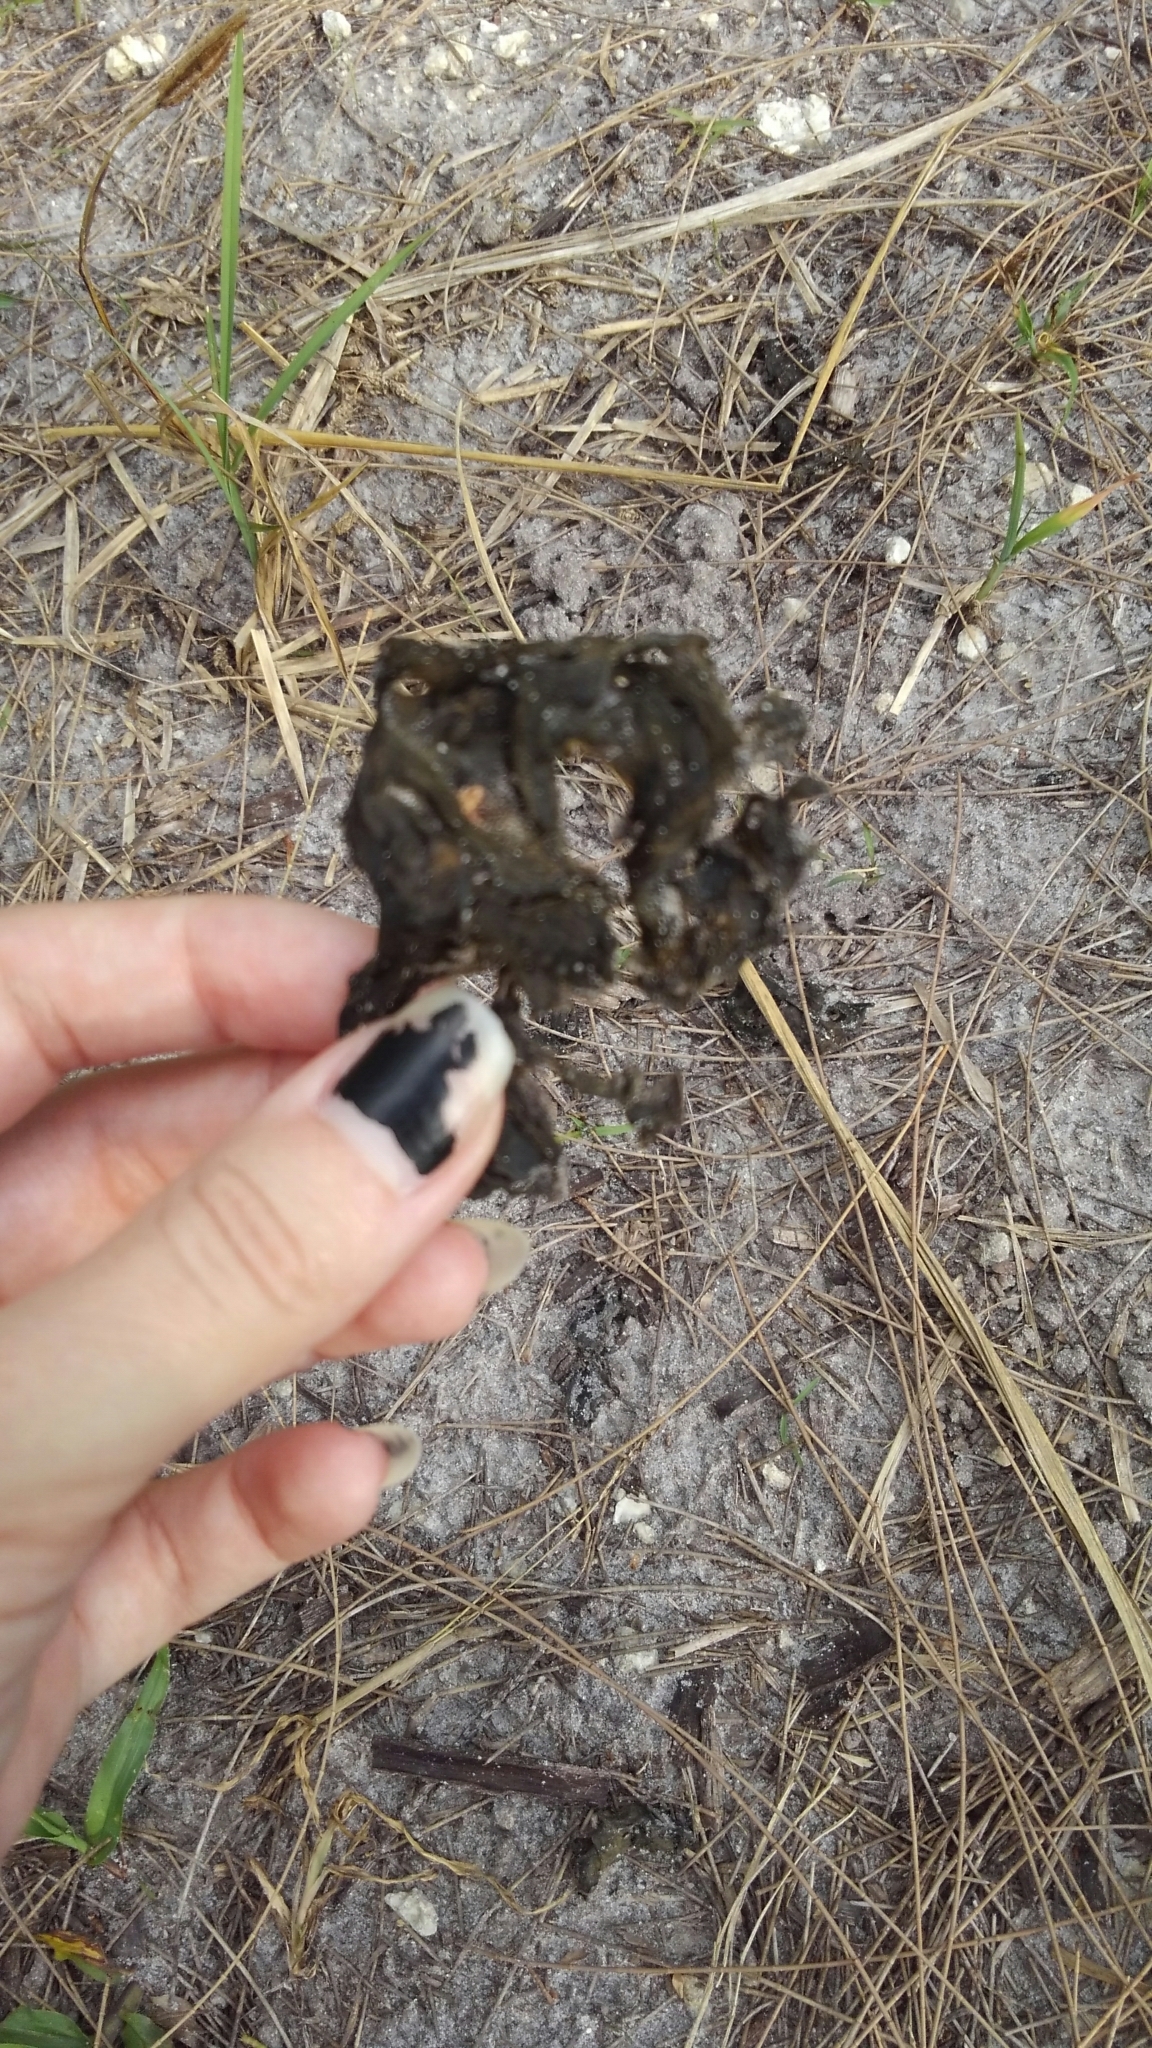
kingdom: Bacteria
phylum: Cyanobacteria
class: Cyanobacteriia
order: Cyanobacteriales
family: Nostocaceae
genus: Nostoc
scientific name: Nostoc commune
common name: Star jelly
